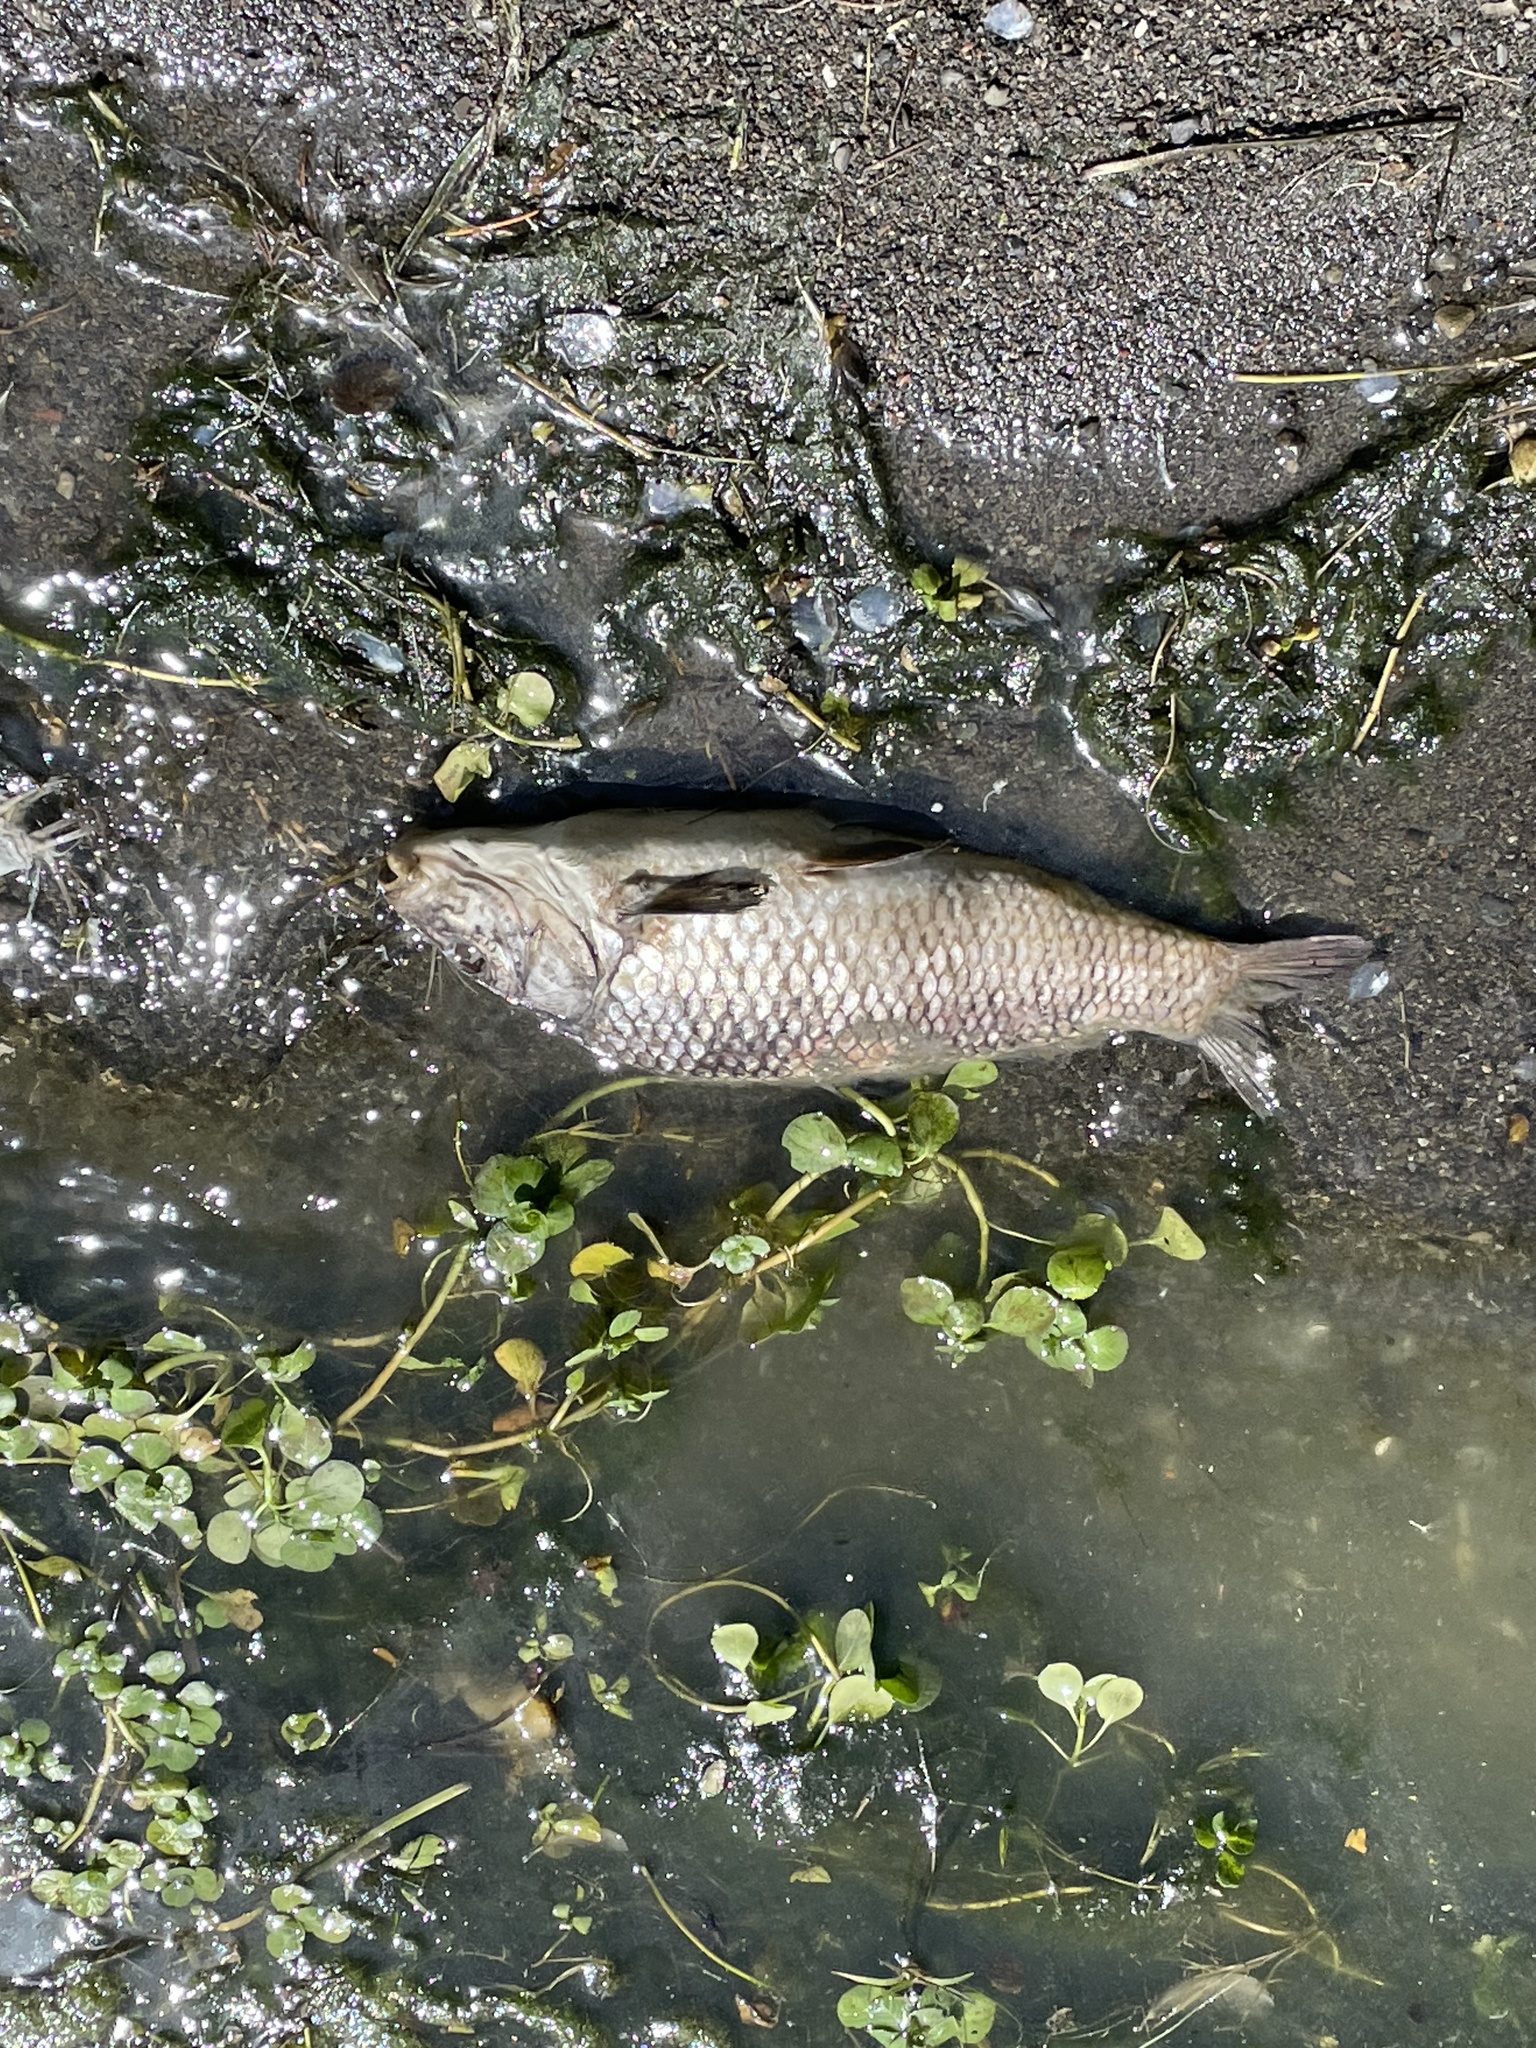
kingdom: Animalia
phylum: Chordata
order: Cypriniformes
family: Cyprinidae
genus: Cyprinus
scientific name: Cyprinus carpio
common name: Common carp
